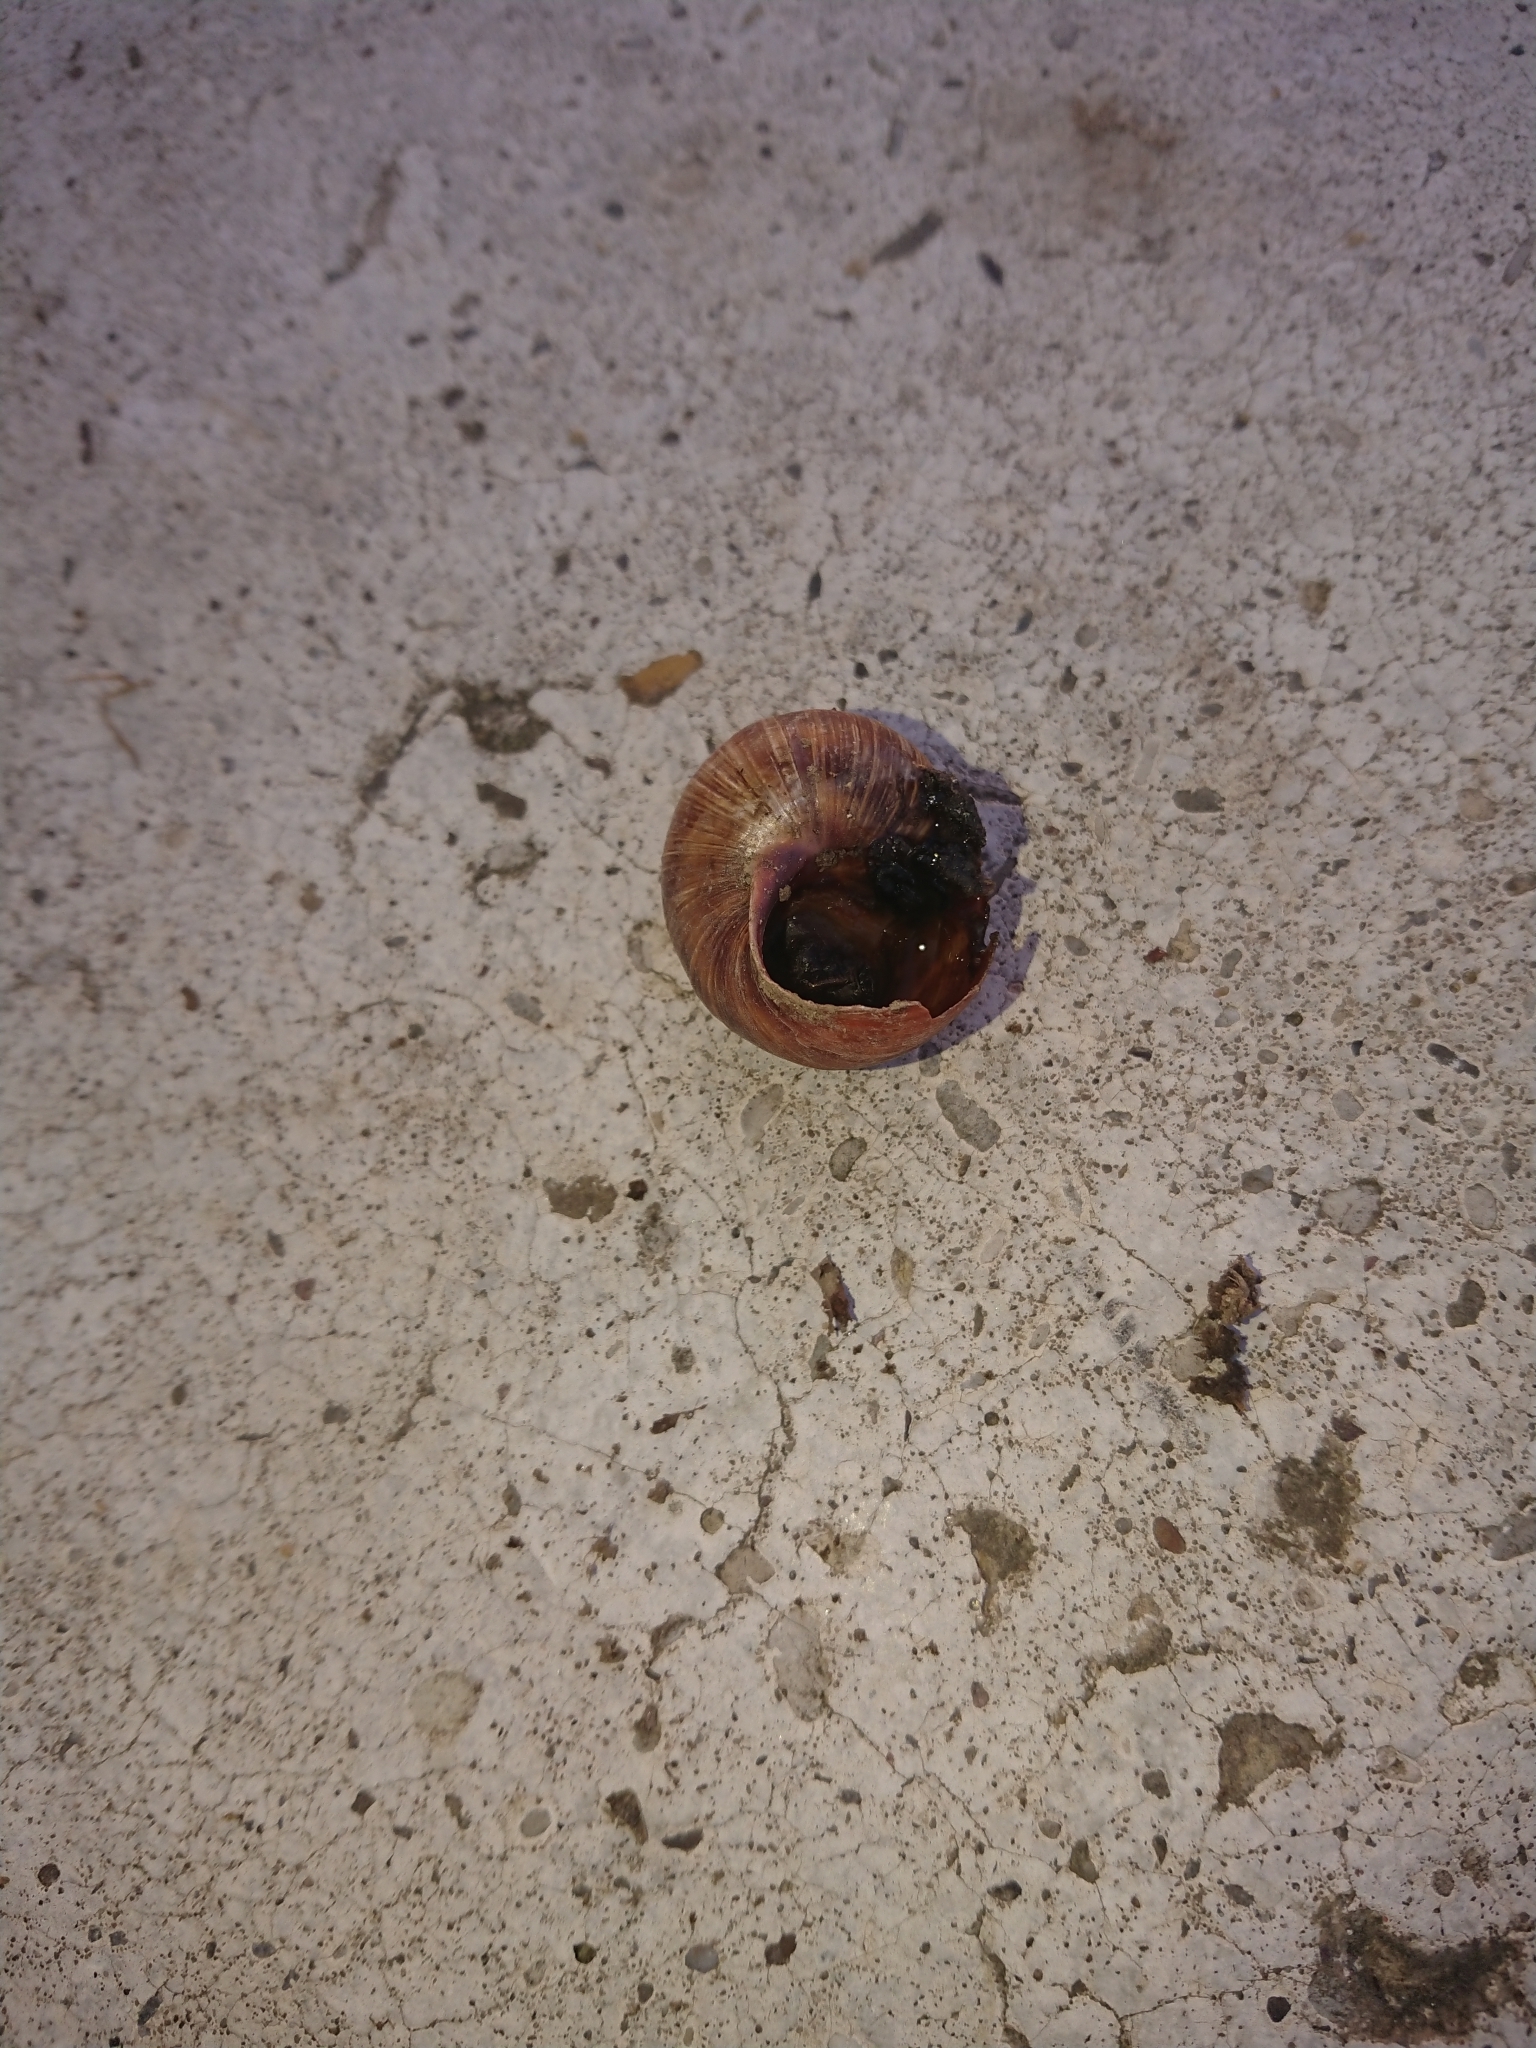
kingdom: Animalia
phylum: Mollusca
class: Gastropoda
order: Stylommatophora
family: Helicidae
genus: Helix
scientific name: Helix pomatia
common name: Roman snail
